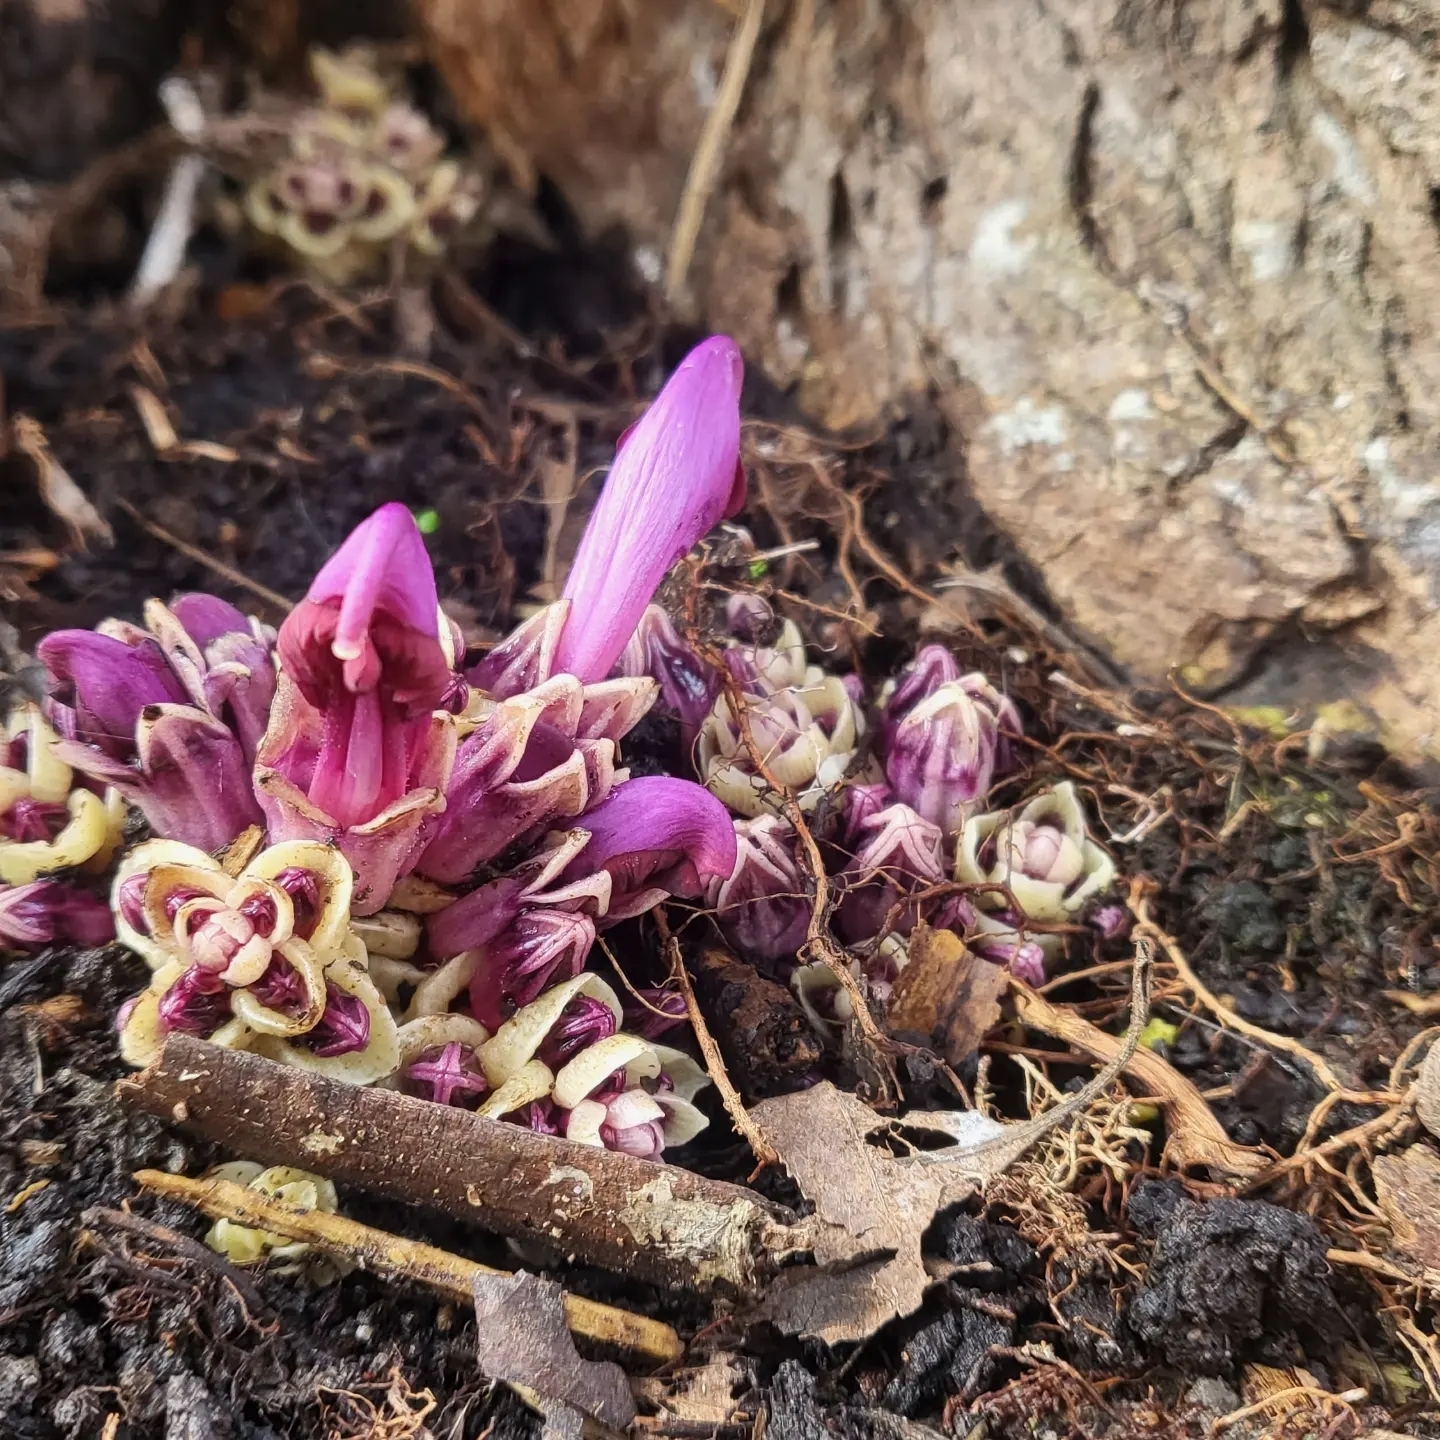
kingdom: Plantae
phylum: Tracheophyta
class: Magnoliopsida
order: Lamiales
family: Orobanchaceae
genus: Lathraea
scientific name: Lathraea clandestina
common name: Purple toothwort
